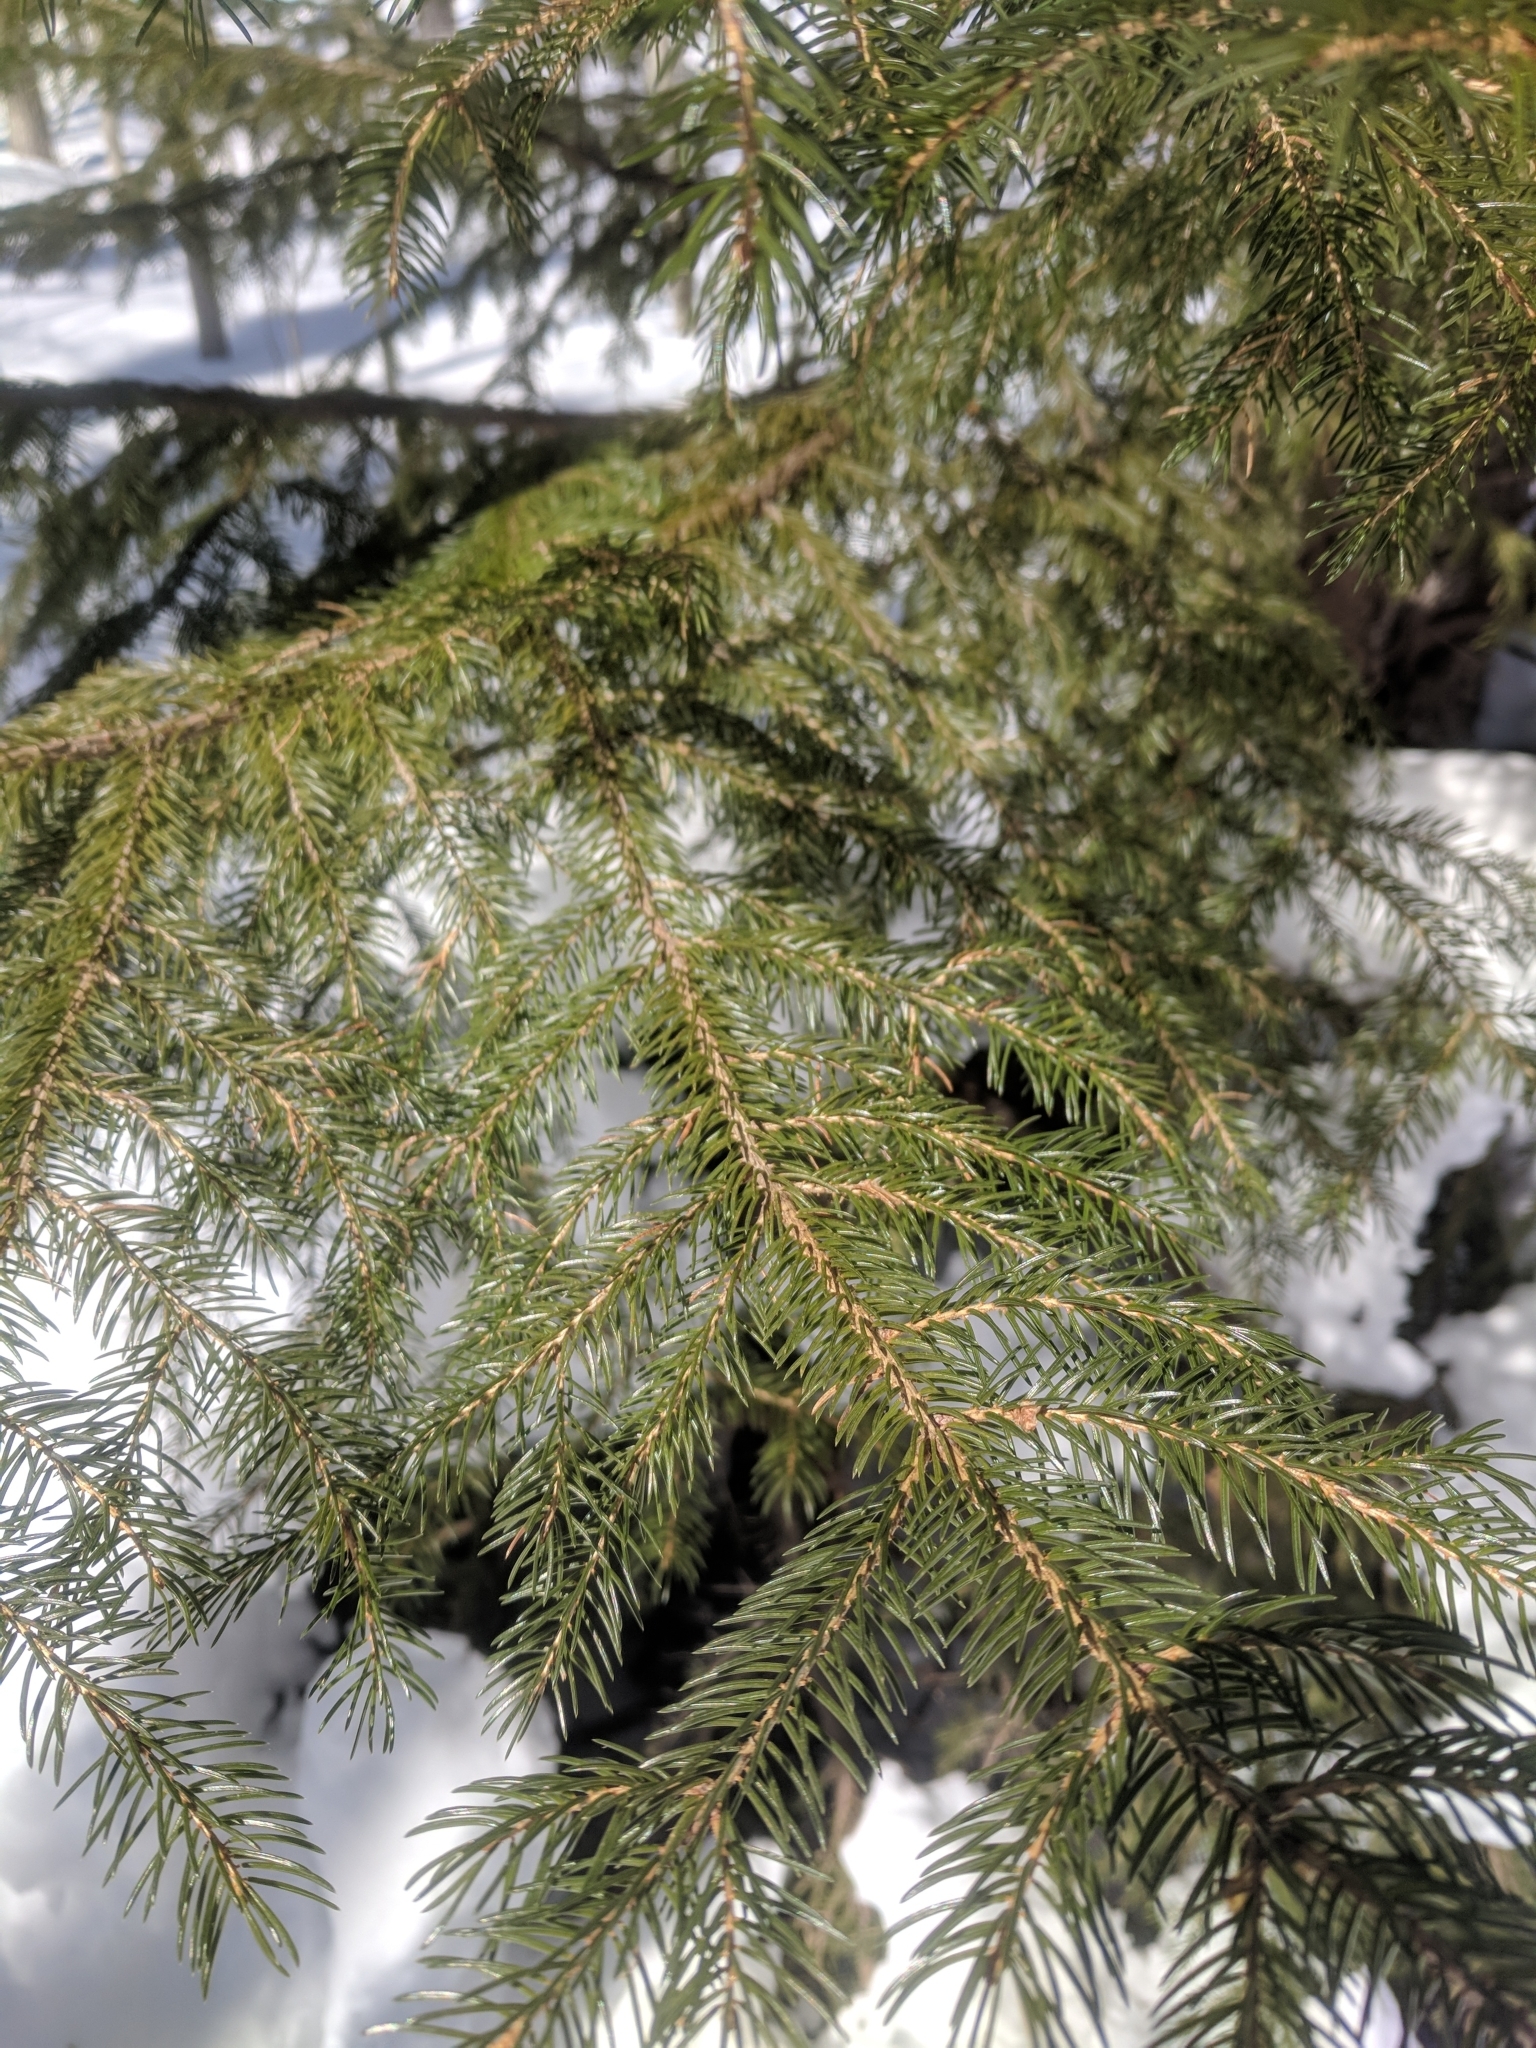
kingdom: Plantae
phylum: Tracheophyta
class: Pinopsida
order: Pinales
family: Pinaceae
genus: Picea
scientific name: Picea rubens
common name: Red spruce
